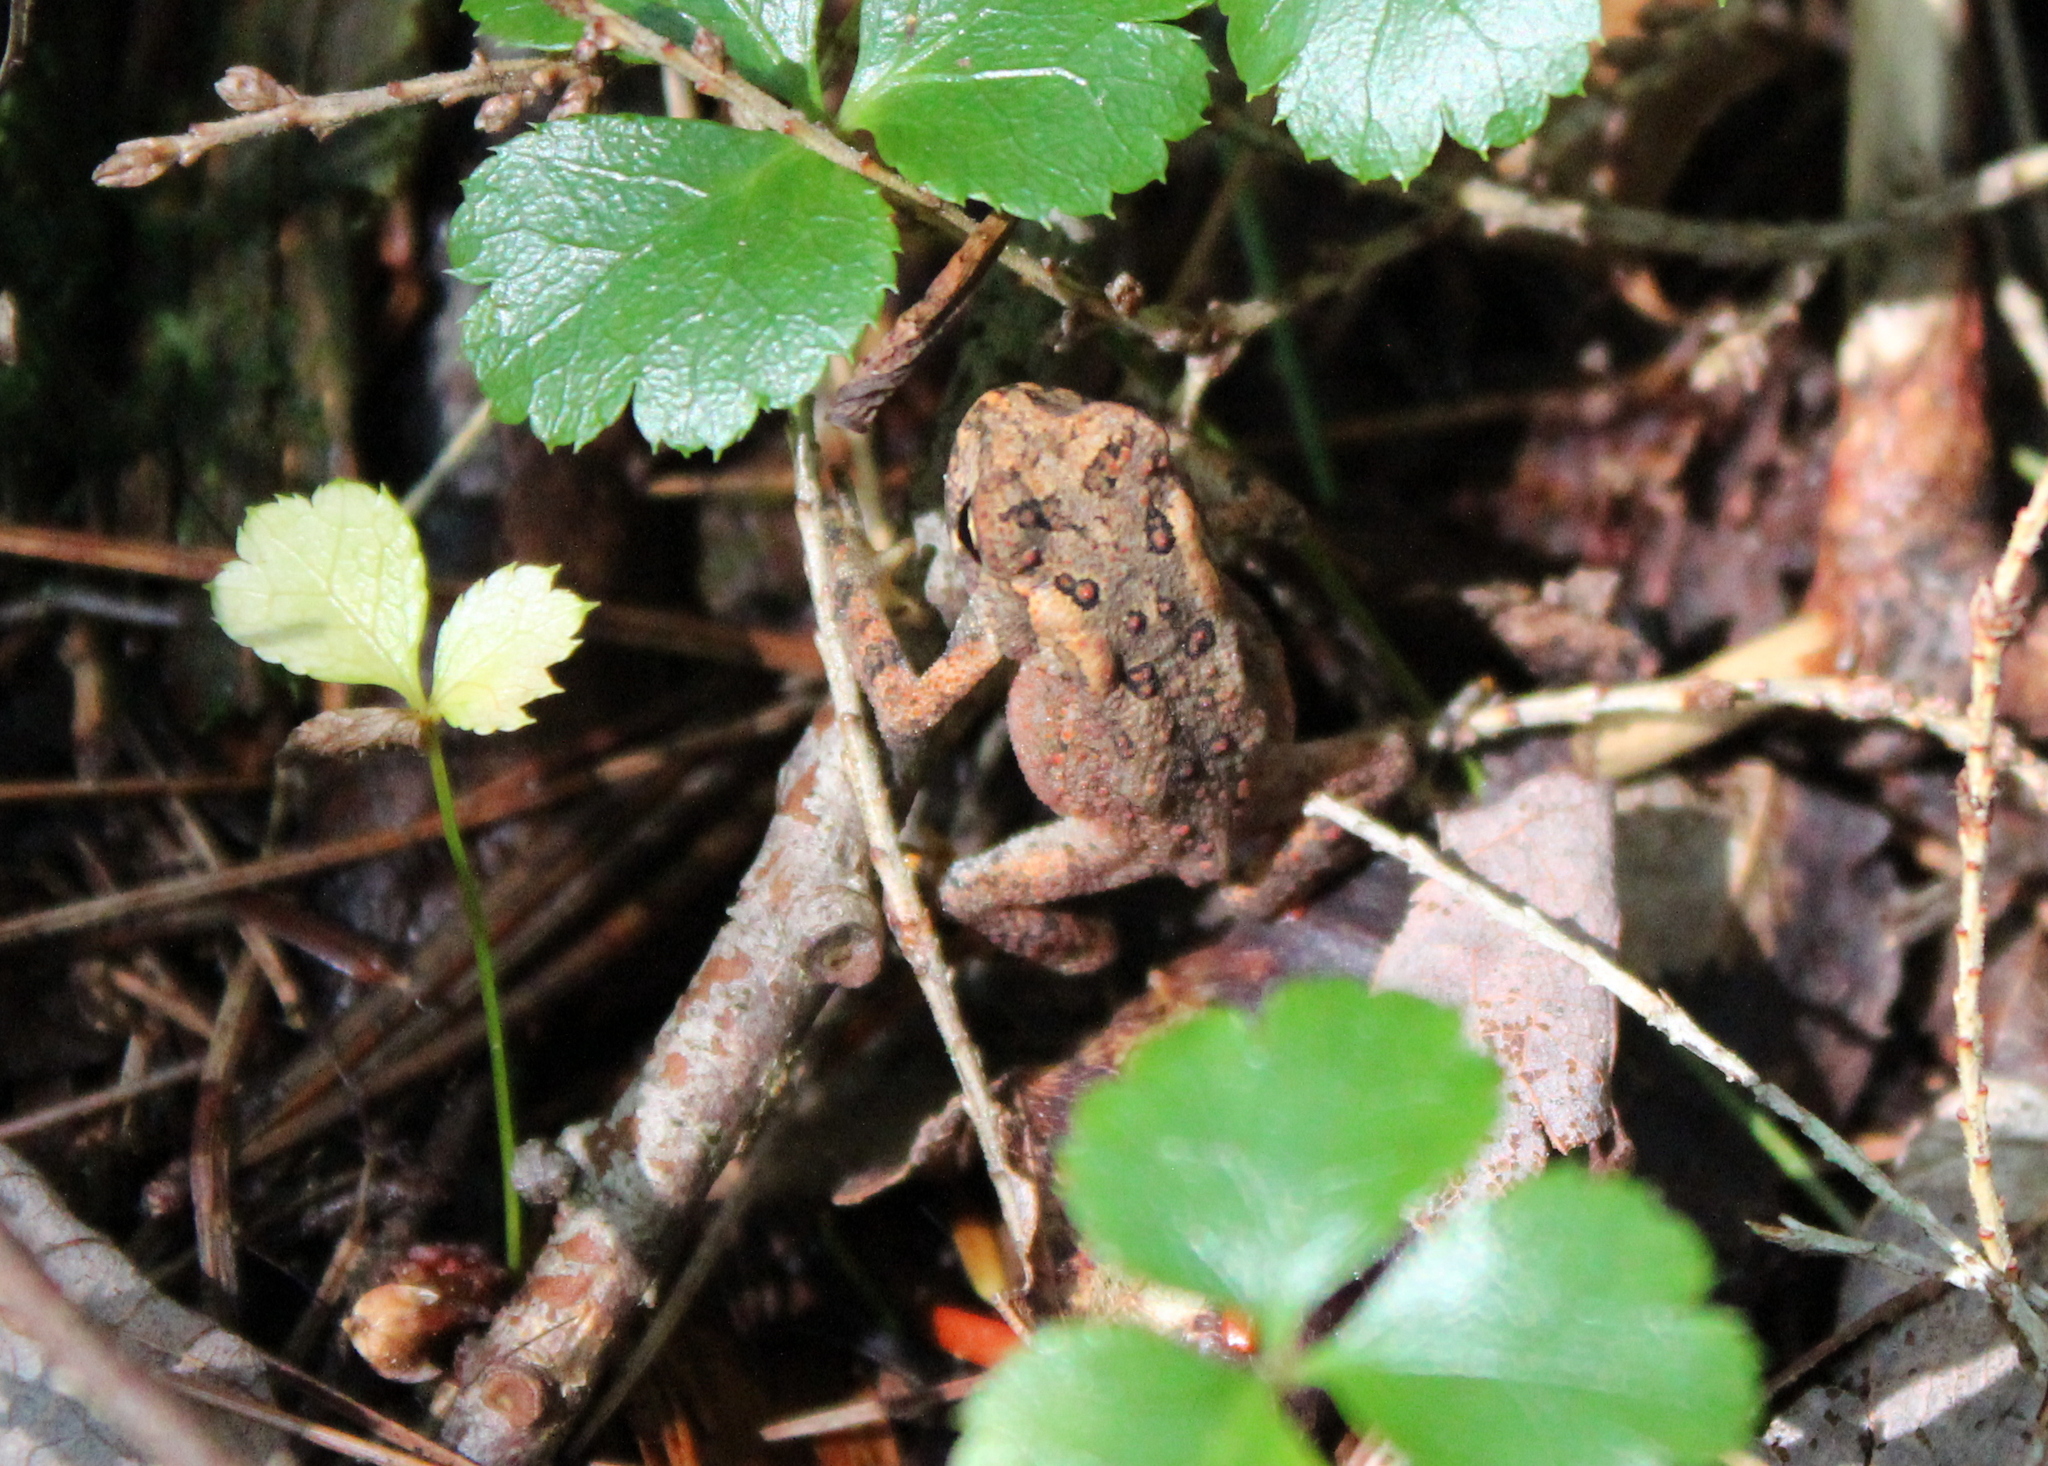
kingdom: Animalia
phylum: Chordata
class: Amphibia
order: Anura
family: Bufonidae
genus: Anaxyrus
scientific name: Anaxyrus americanus
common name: American toad
